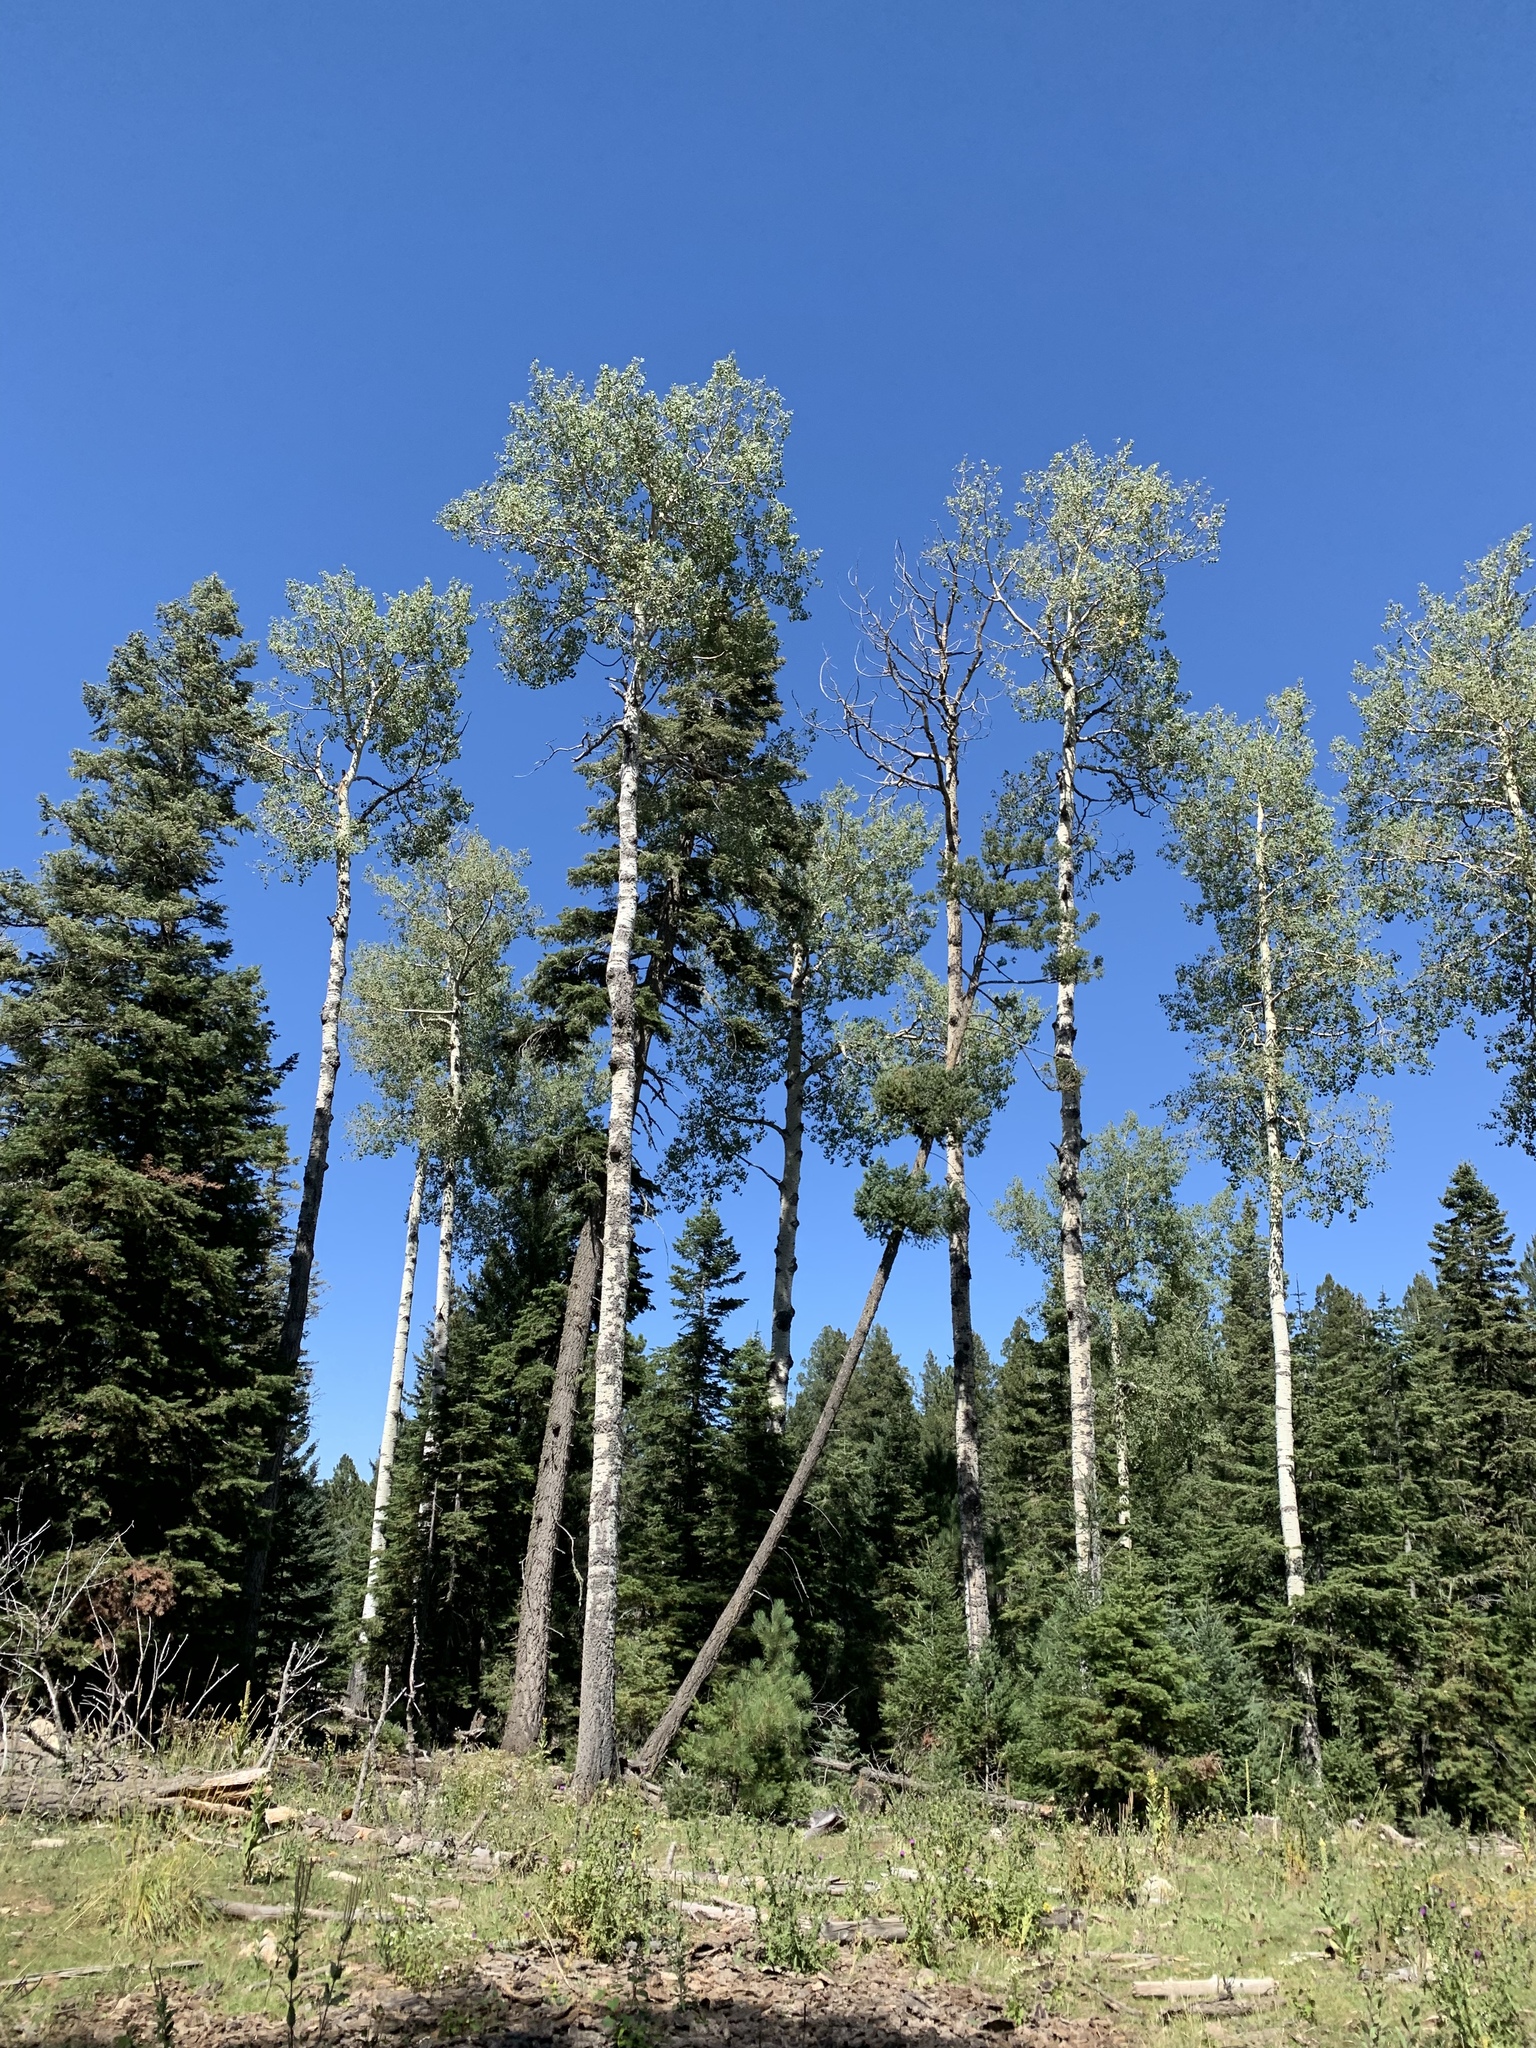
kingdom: Plantae
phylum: Tracheophyta
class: Magnoliopsida
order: Malpighiales
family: Salicaceae
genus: Populus
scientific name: Populus tremuloides
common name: Quaking aspen
